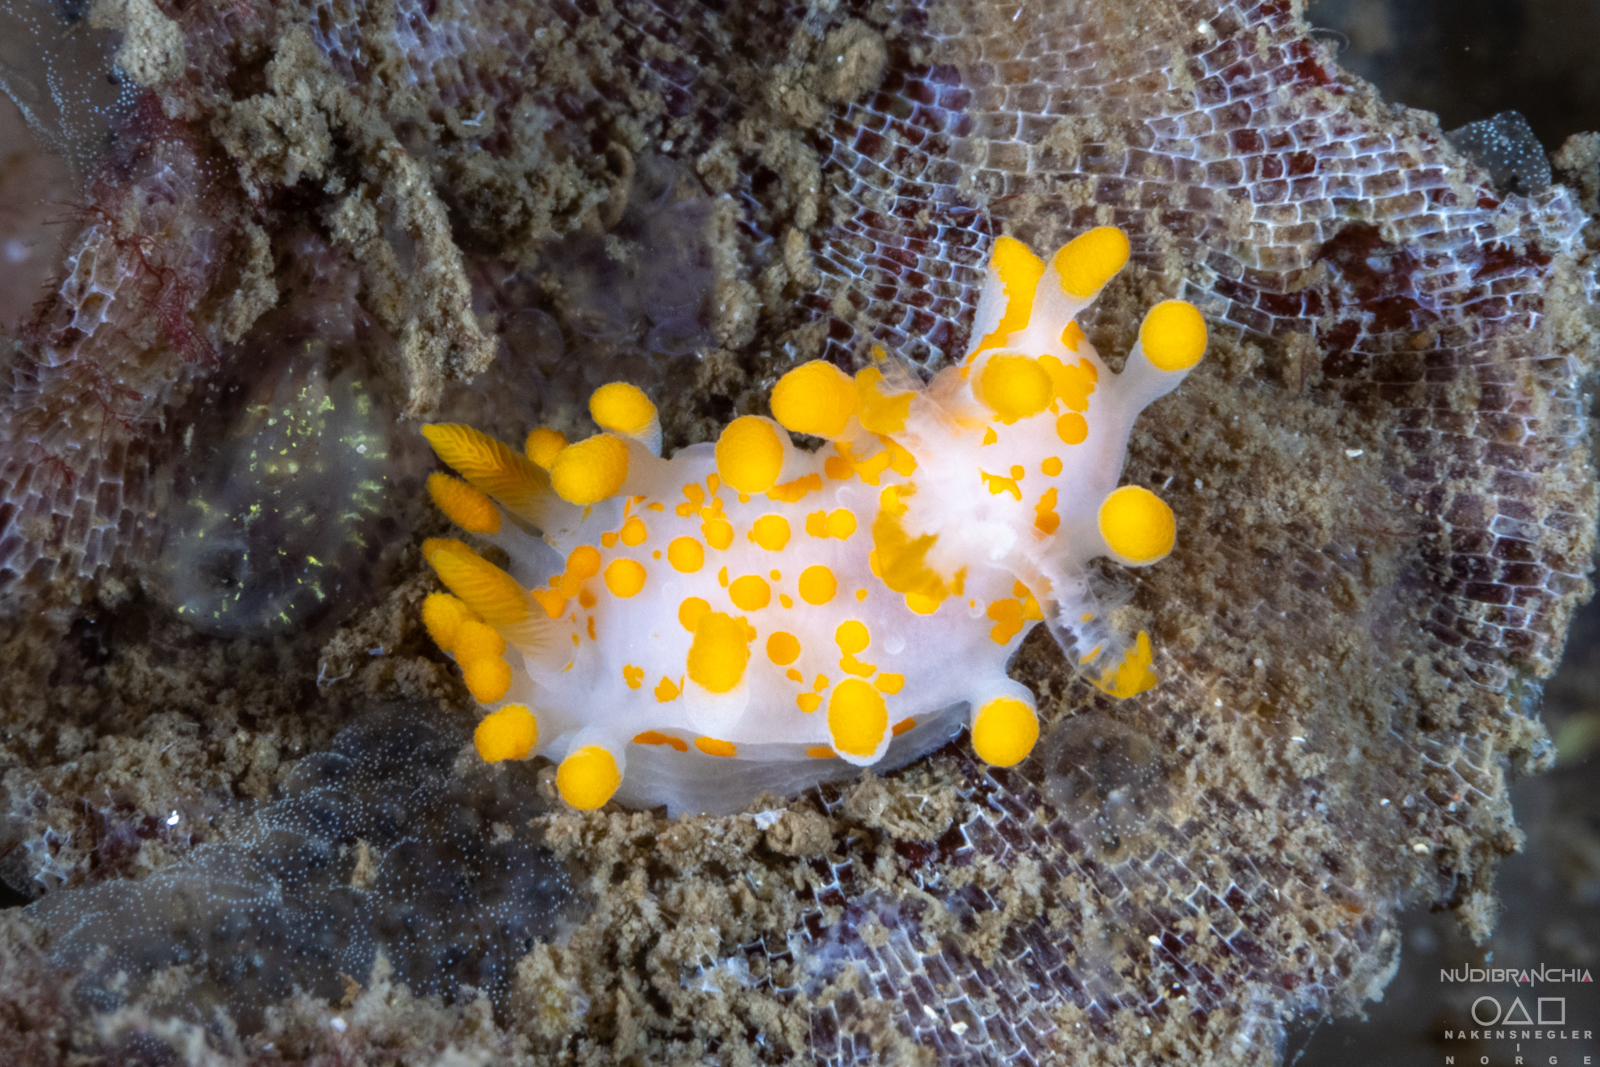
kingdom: Animalia
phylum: Mollusca
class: Gastropoda
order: Nudibranchia
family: Polyceridae
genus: Limacia
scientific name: Limacia clavigera
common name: Orange-clubbed sea slug
